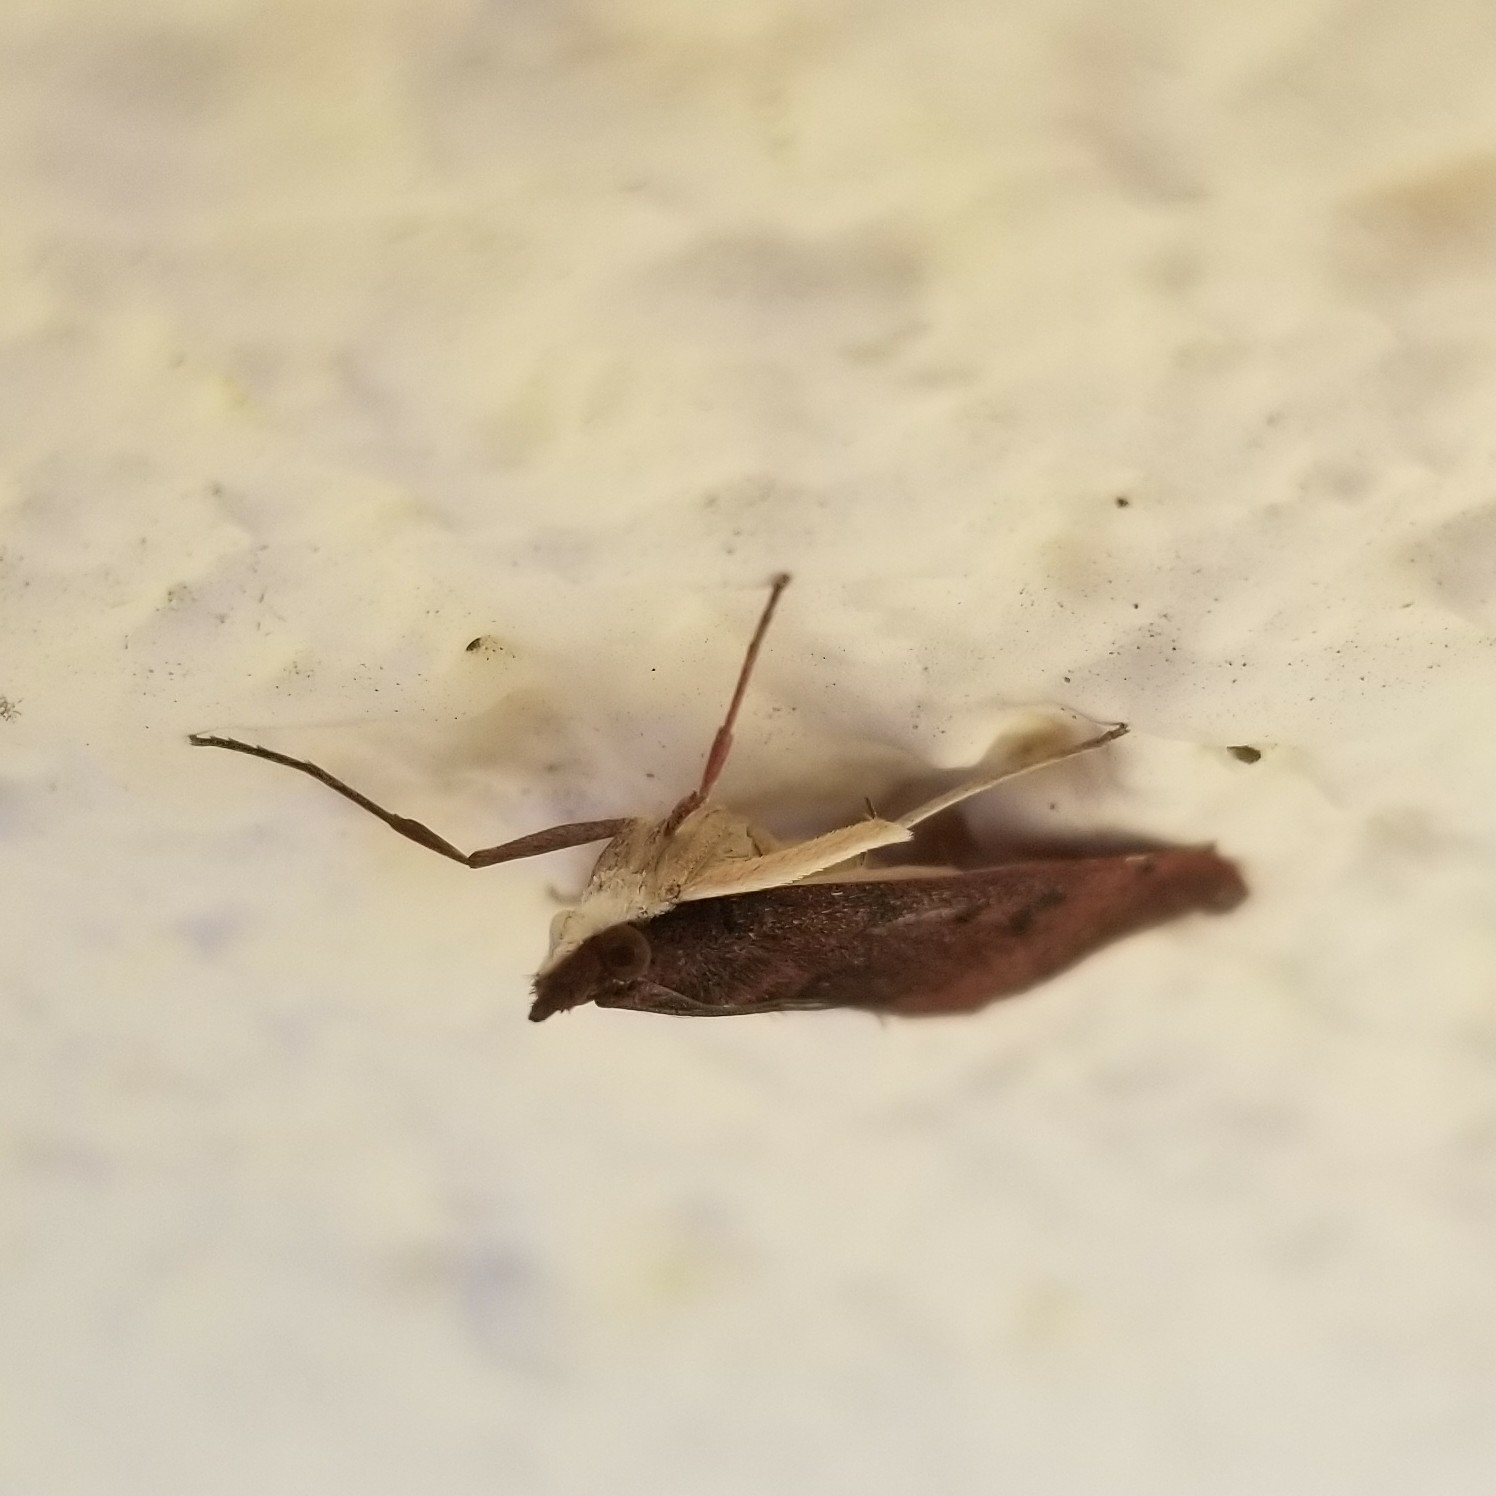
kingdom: Animalia
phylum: Arthropoda
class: Insecta
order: Lepidoptera
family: Crambidae
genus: Uresiphita
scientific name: Uresiphita reversalis
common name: Genista broom moth
